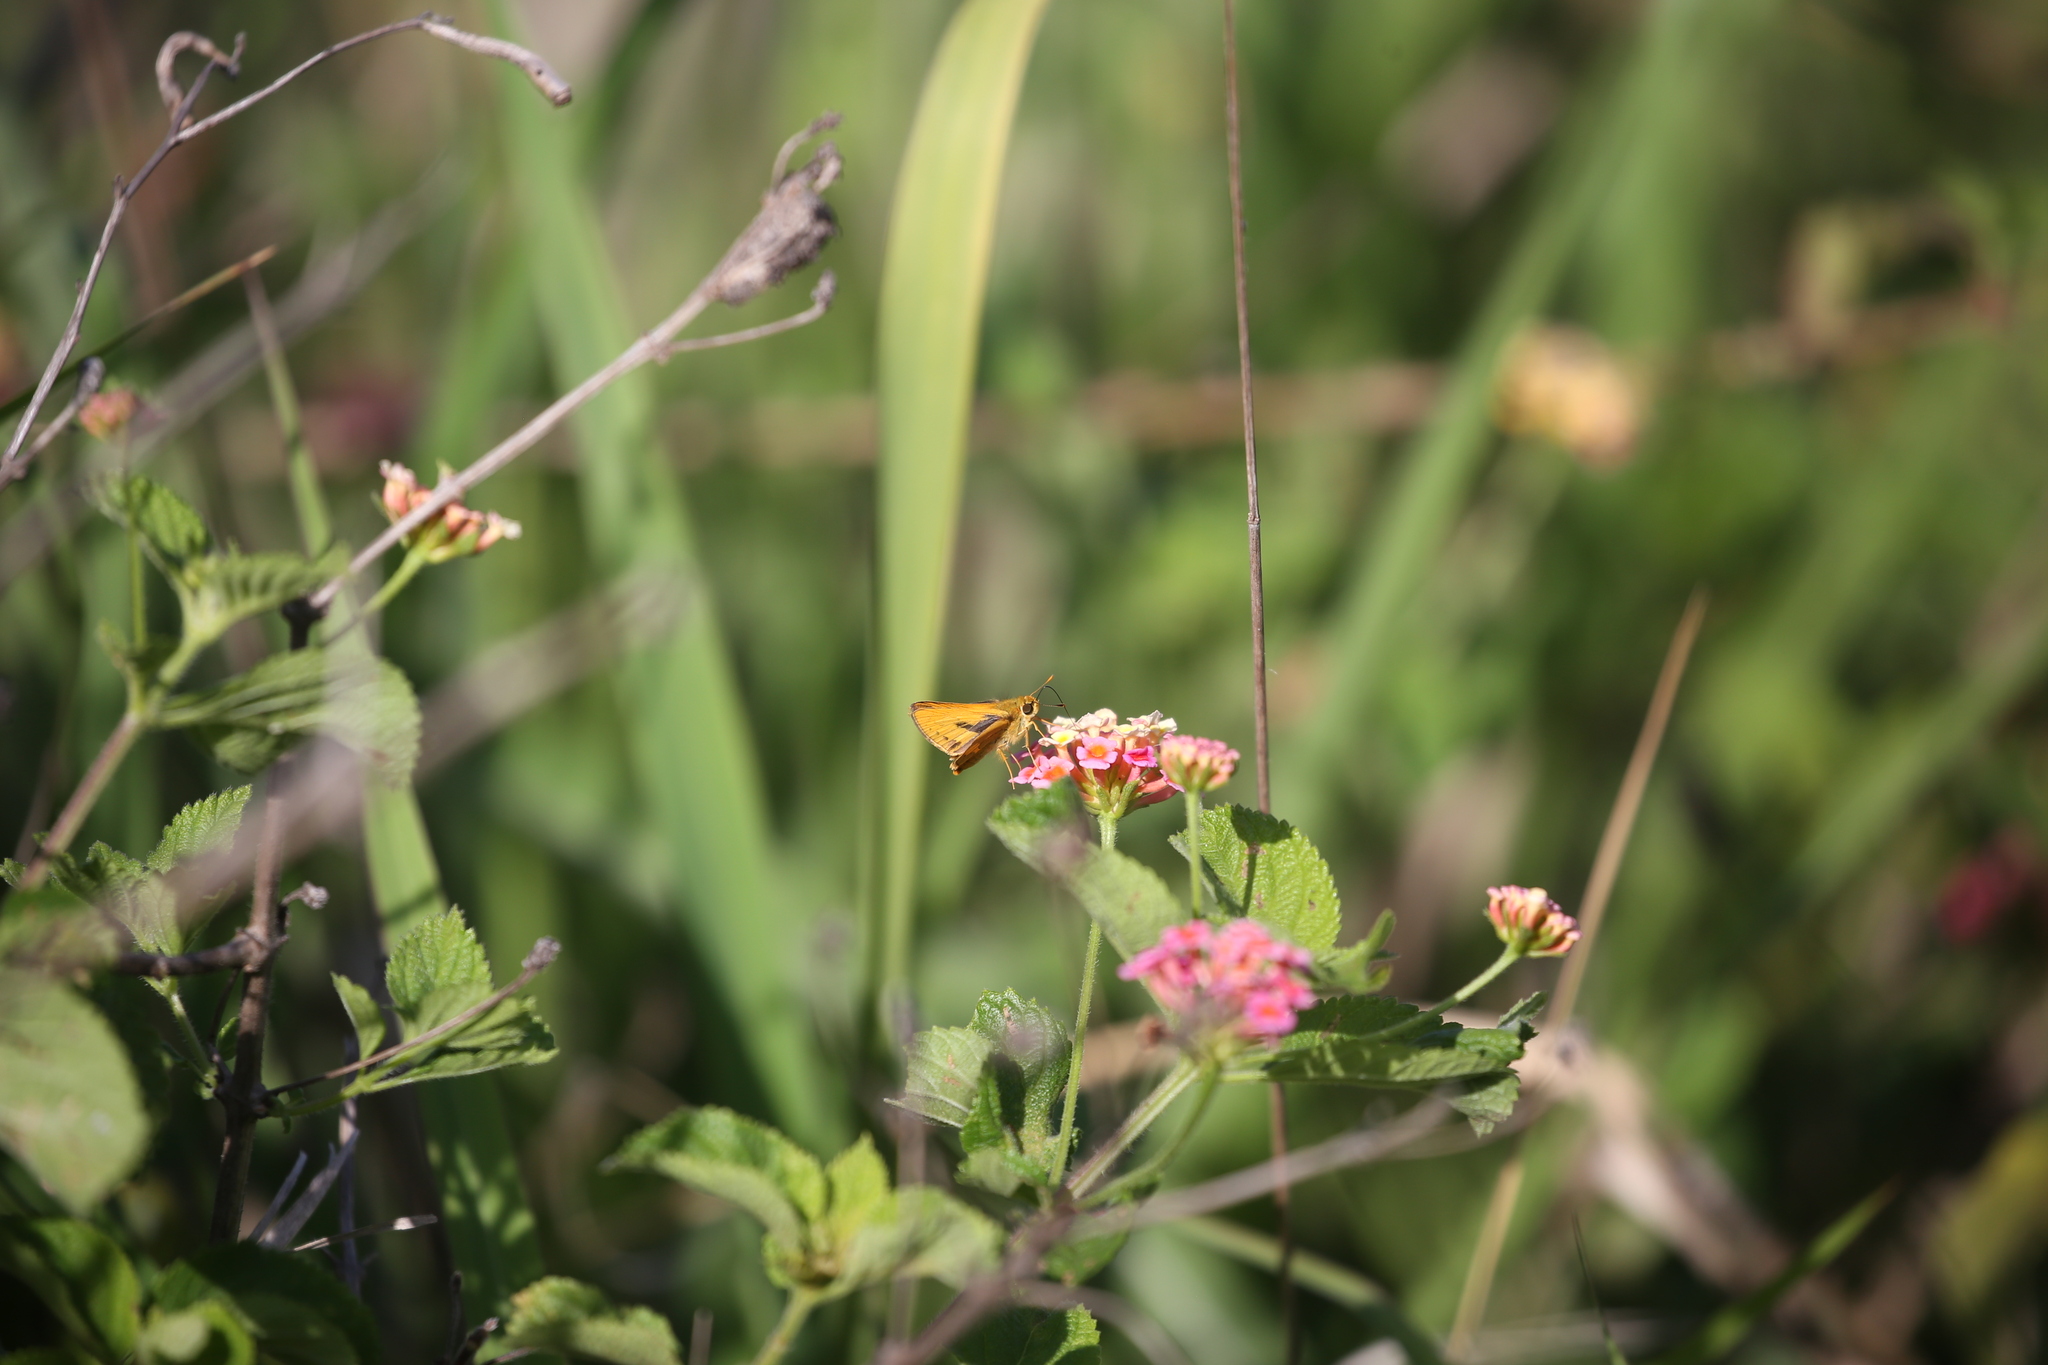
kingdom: Animalia
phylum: Arthropoda
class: Insecta
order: Lepidoptera
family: Hesperiidae
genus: Telicota
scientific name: Telicota colon
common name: Pale palm dart
